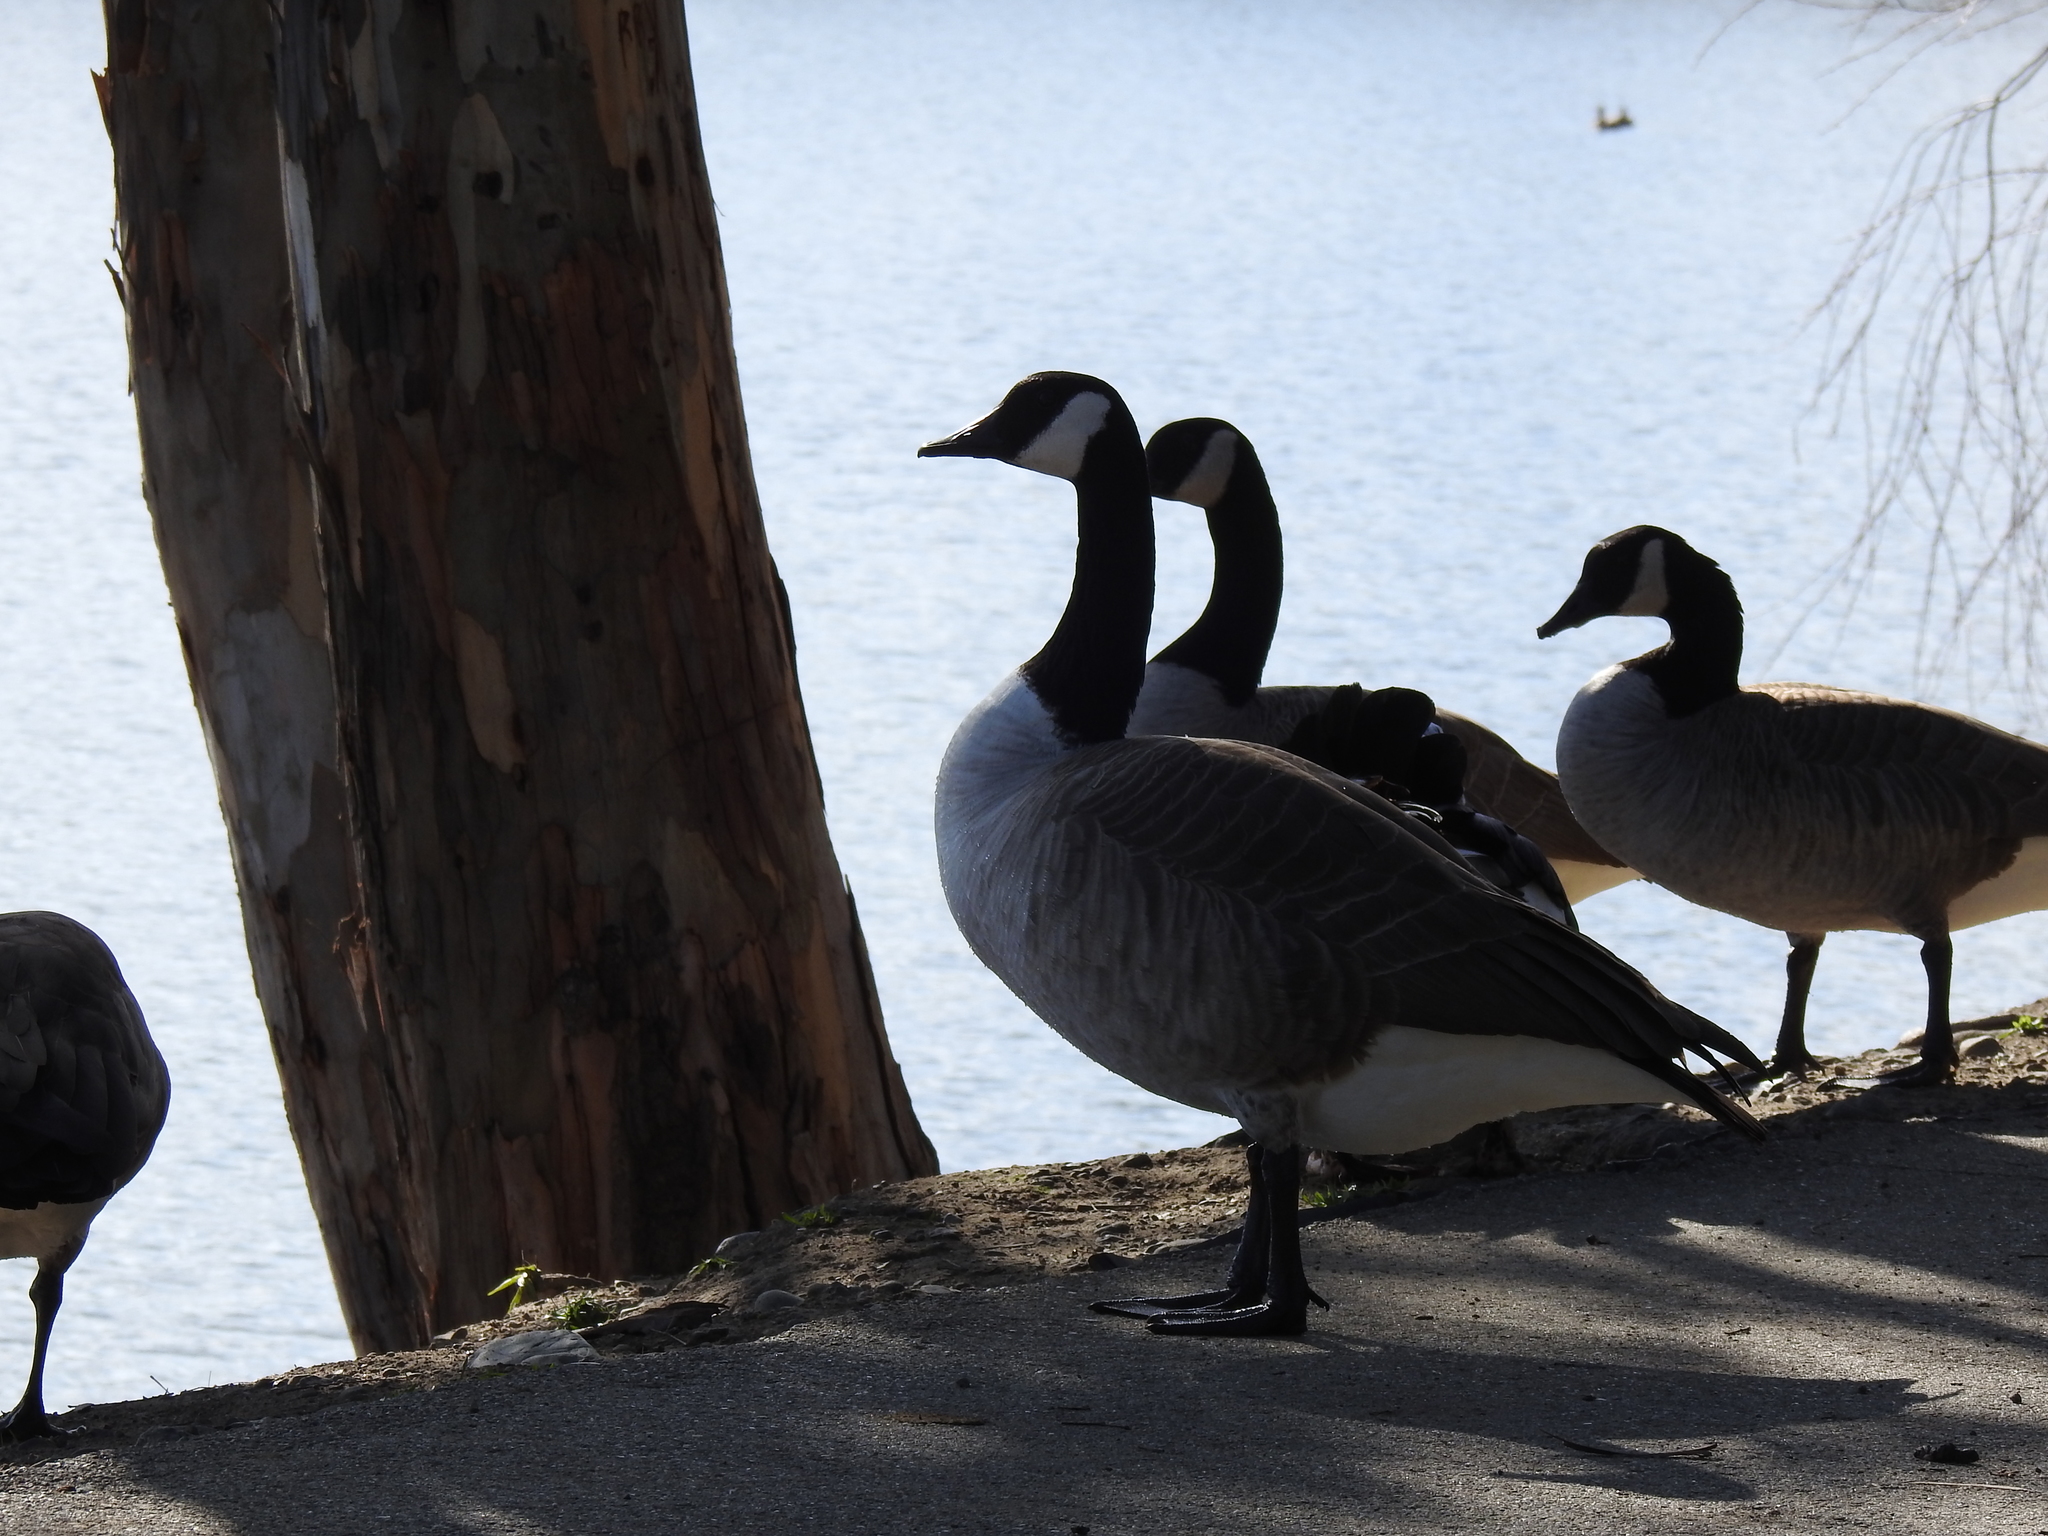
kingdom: Animalia
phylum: Chordata
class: Aves
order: Anseriformes
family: Anatidae
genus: Branta
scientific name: Branta canadensis
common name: Canada goose
